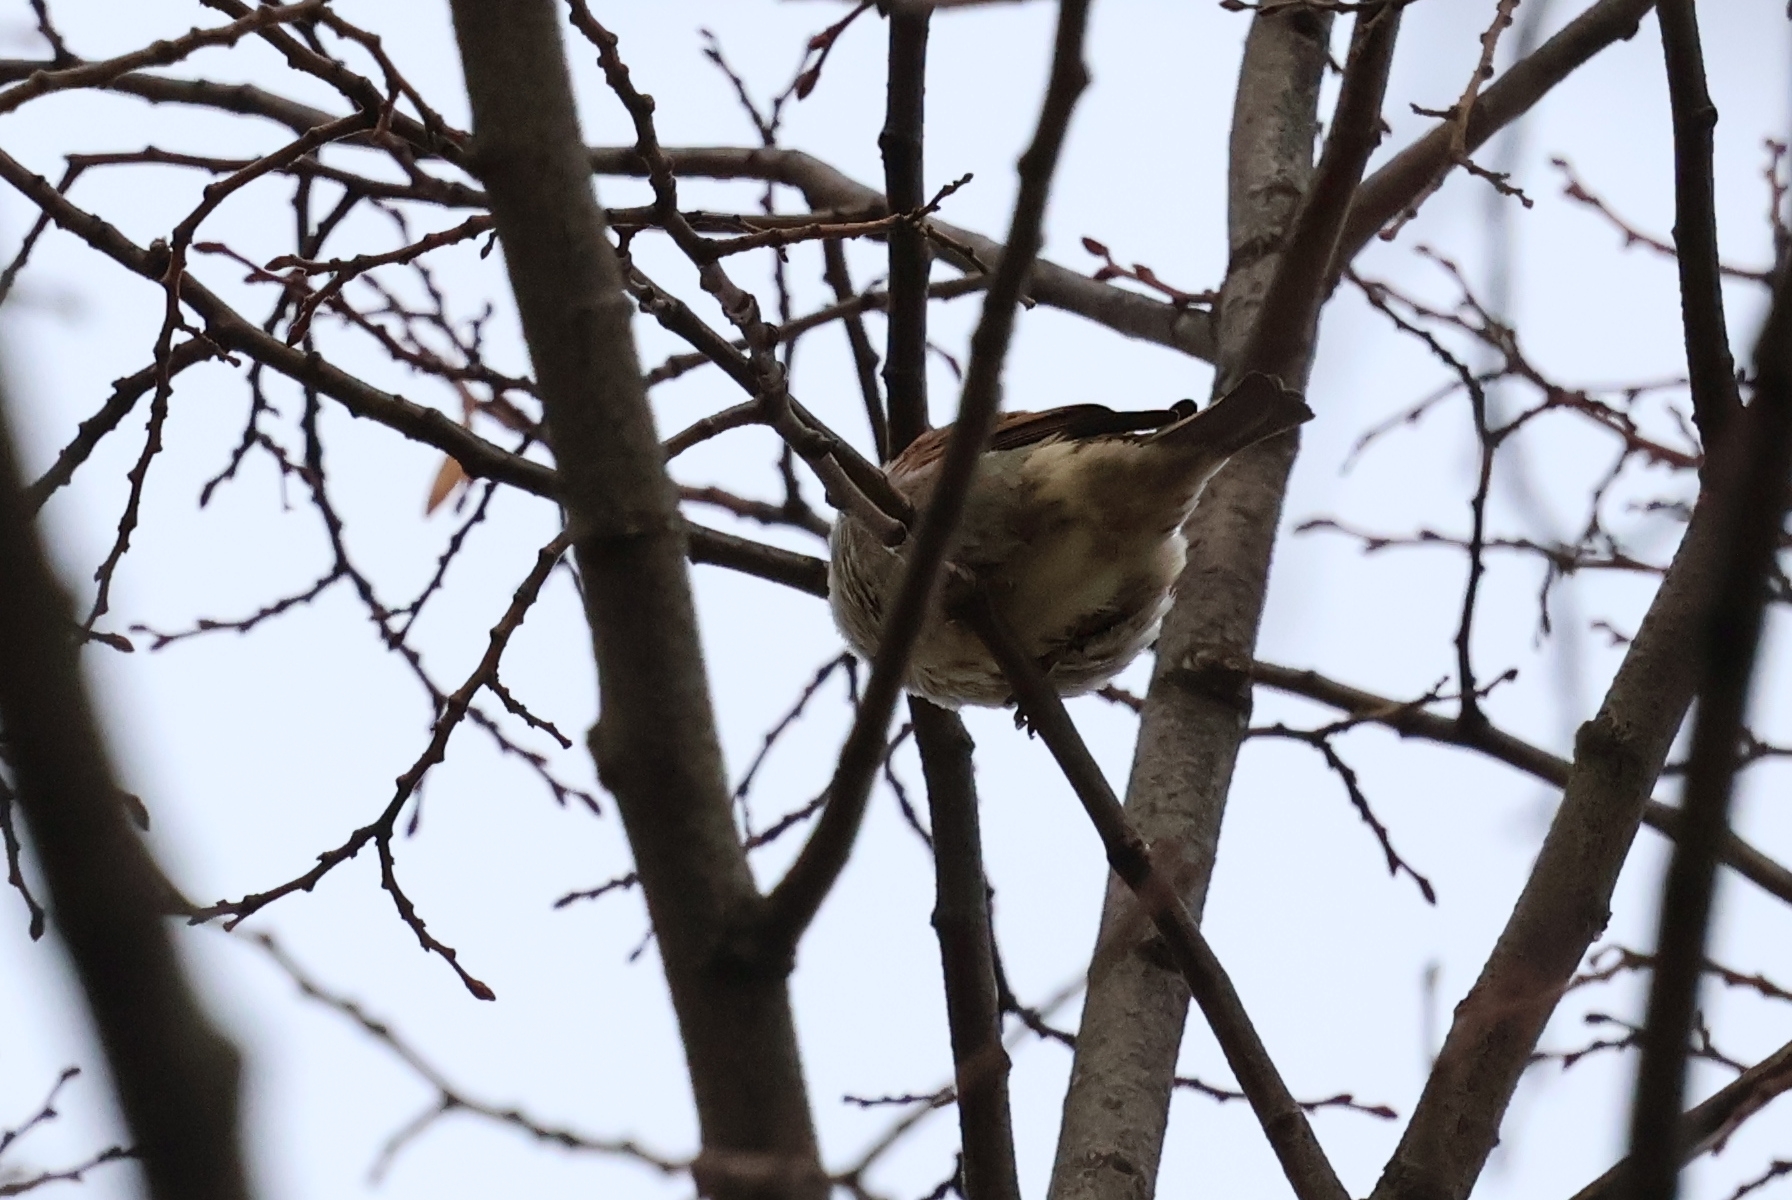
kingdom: Animalia
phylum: Chordata
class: Aves
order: Passeriformes
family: Passeridae
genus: Passer
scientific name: Passer domesticus
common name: House sparrow
